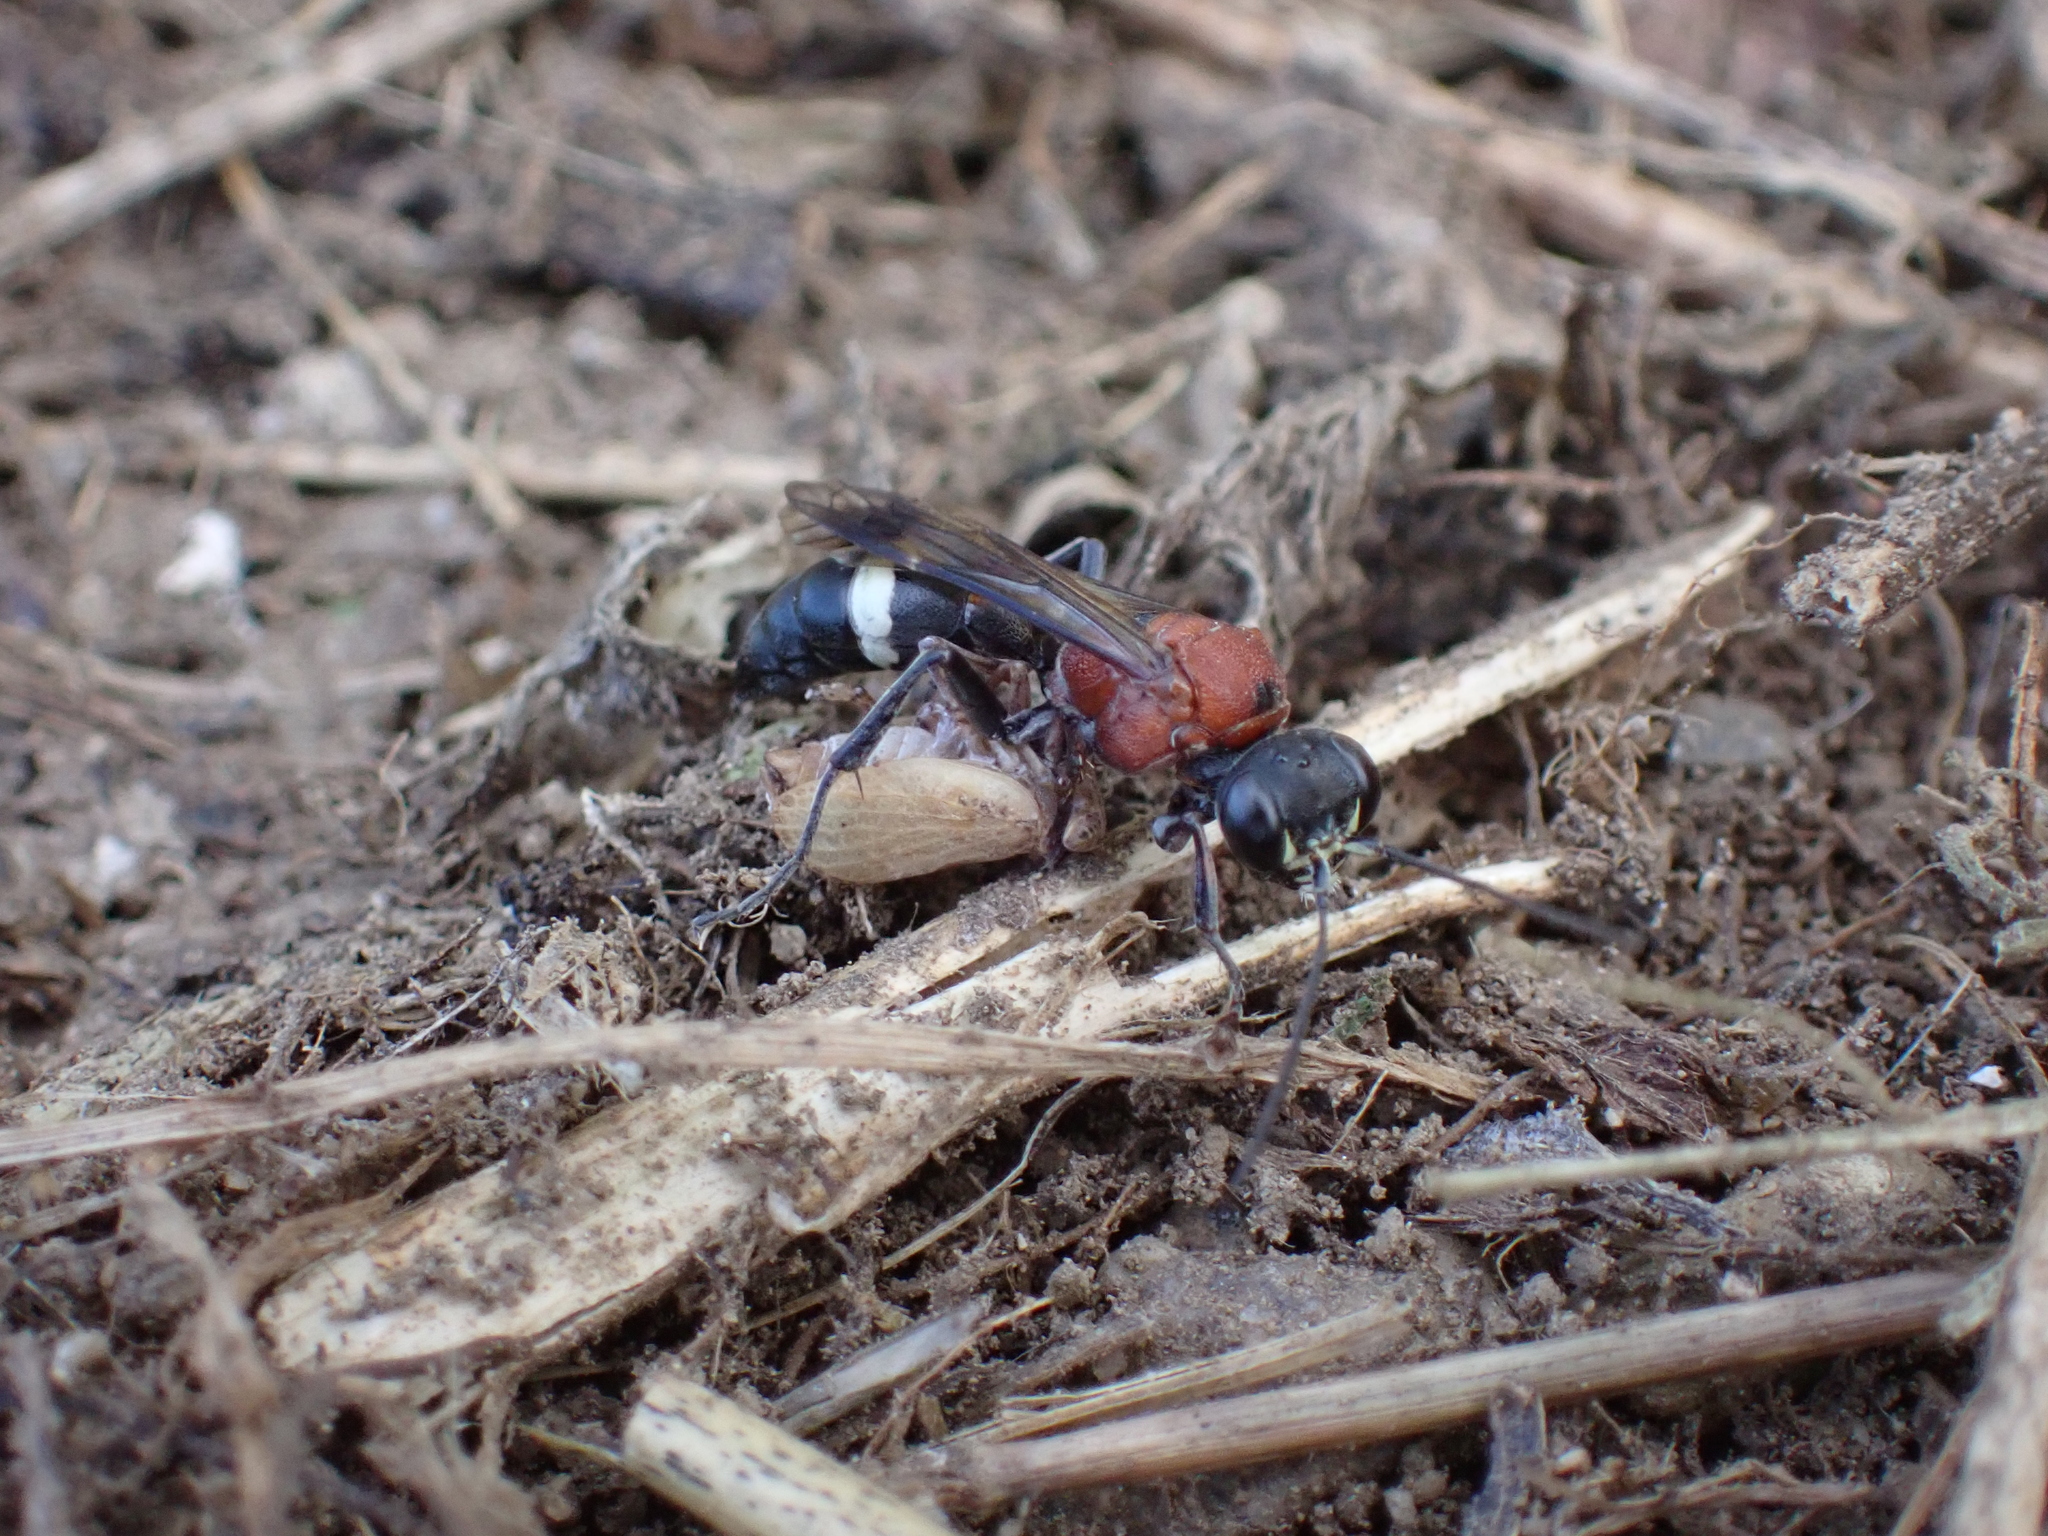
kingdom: Animalia
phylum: Arthropoda
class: Insecta
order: Hemiptera
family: Issidae
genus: Agalmatium
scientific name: Agalmatium flavescens
